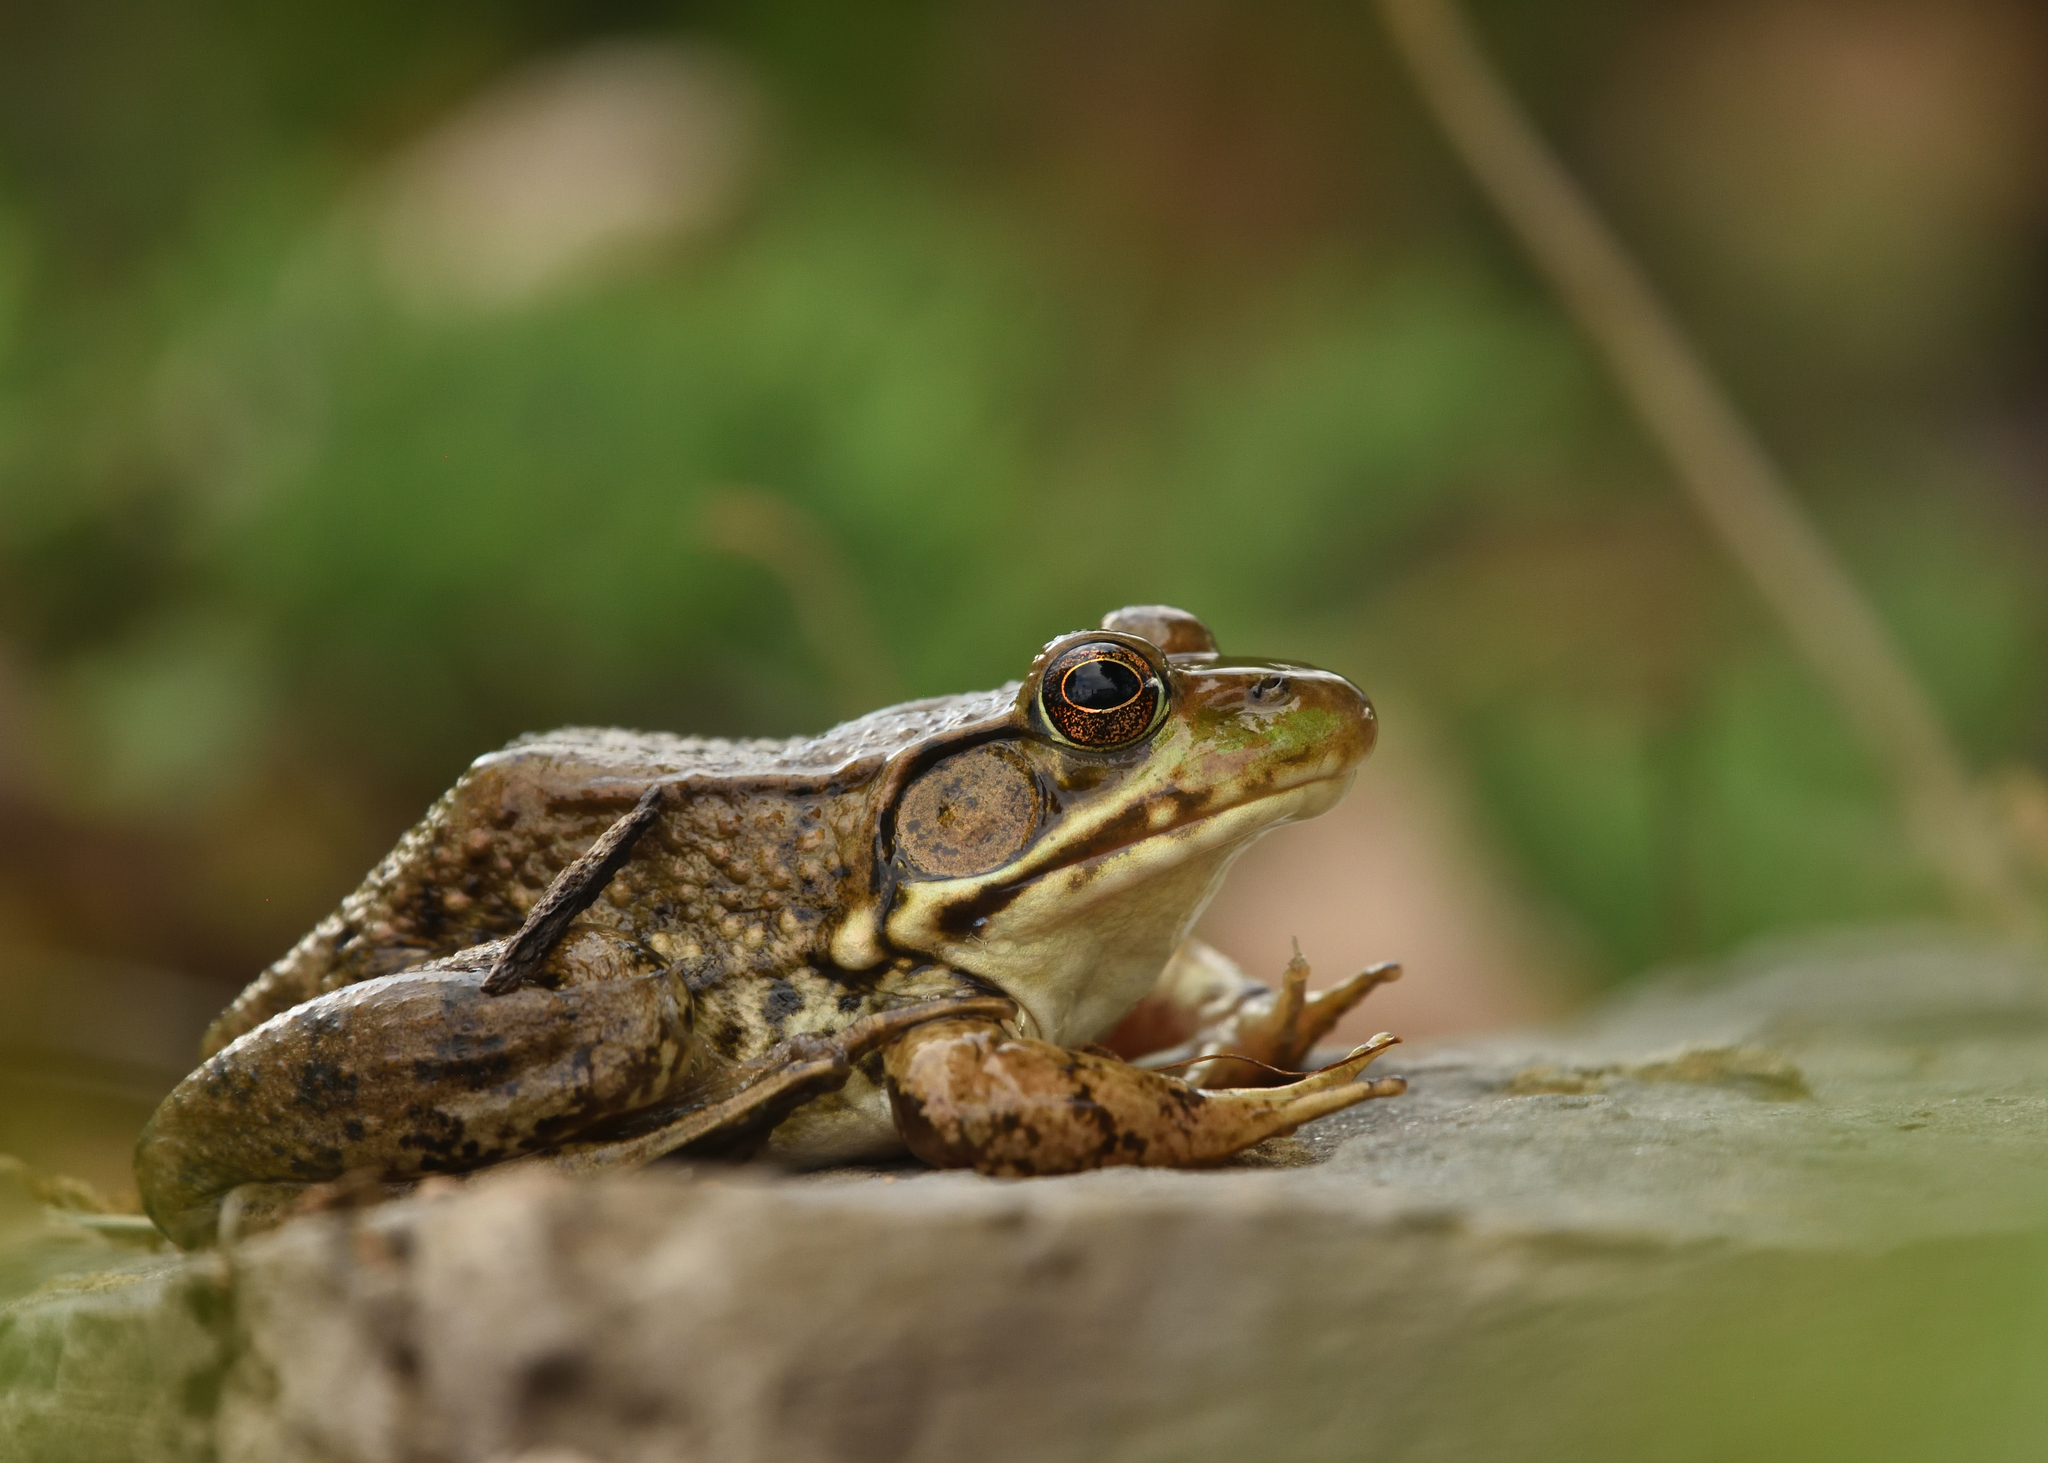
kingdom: Animalia
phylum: Chordata
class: Amphibia
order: Anura
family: Ranidae
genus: Lithobates
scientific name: Lithobates clamitans
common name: Green frog
